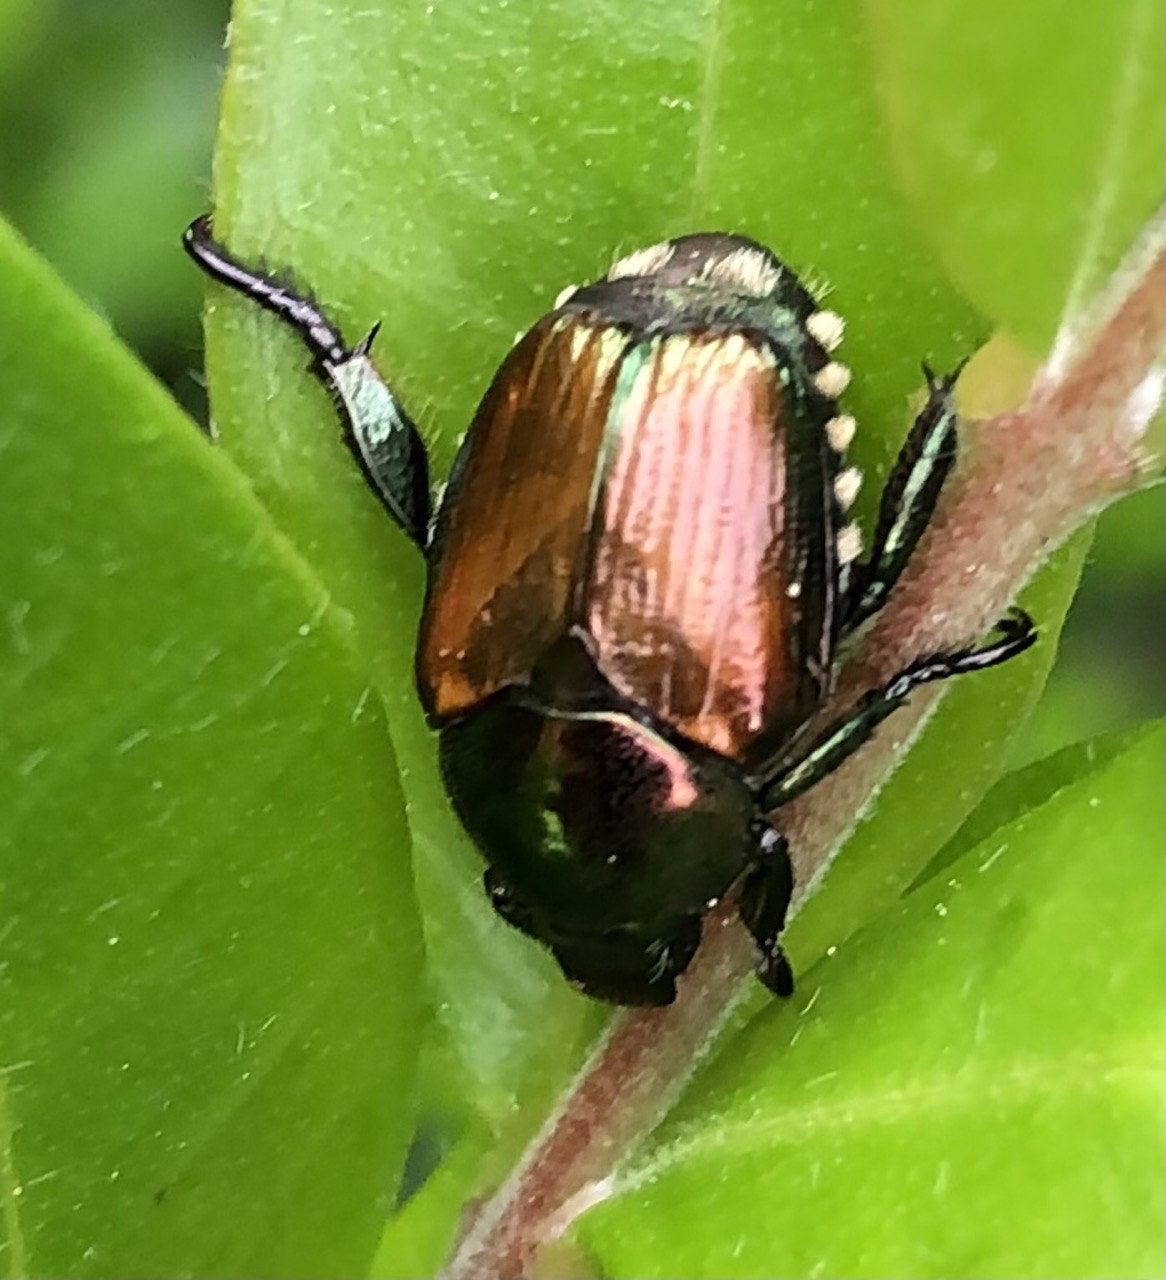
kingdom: Animalia
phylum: Arthropoda
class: Insecta
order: Coleoptera
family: Scarabaeidae
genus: Popillia
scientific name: Popillia japonica
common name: Japanese beetle
